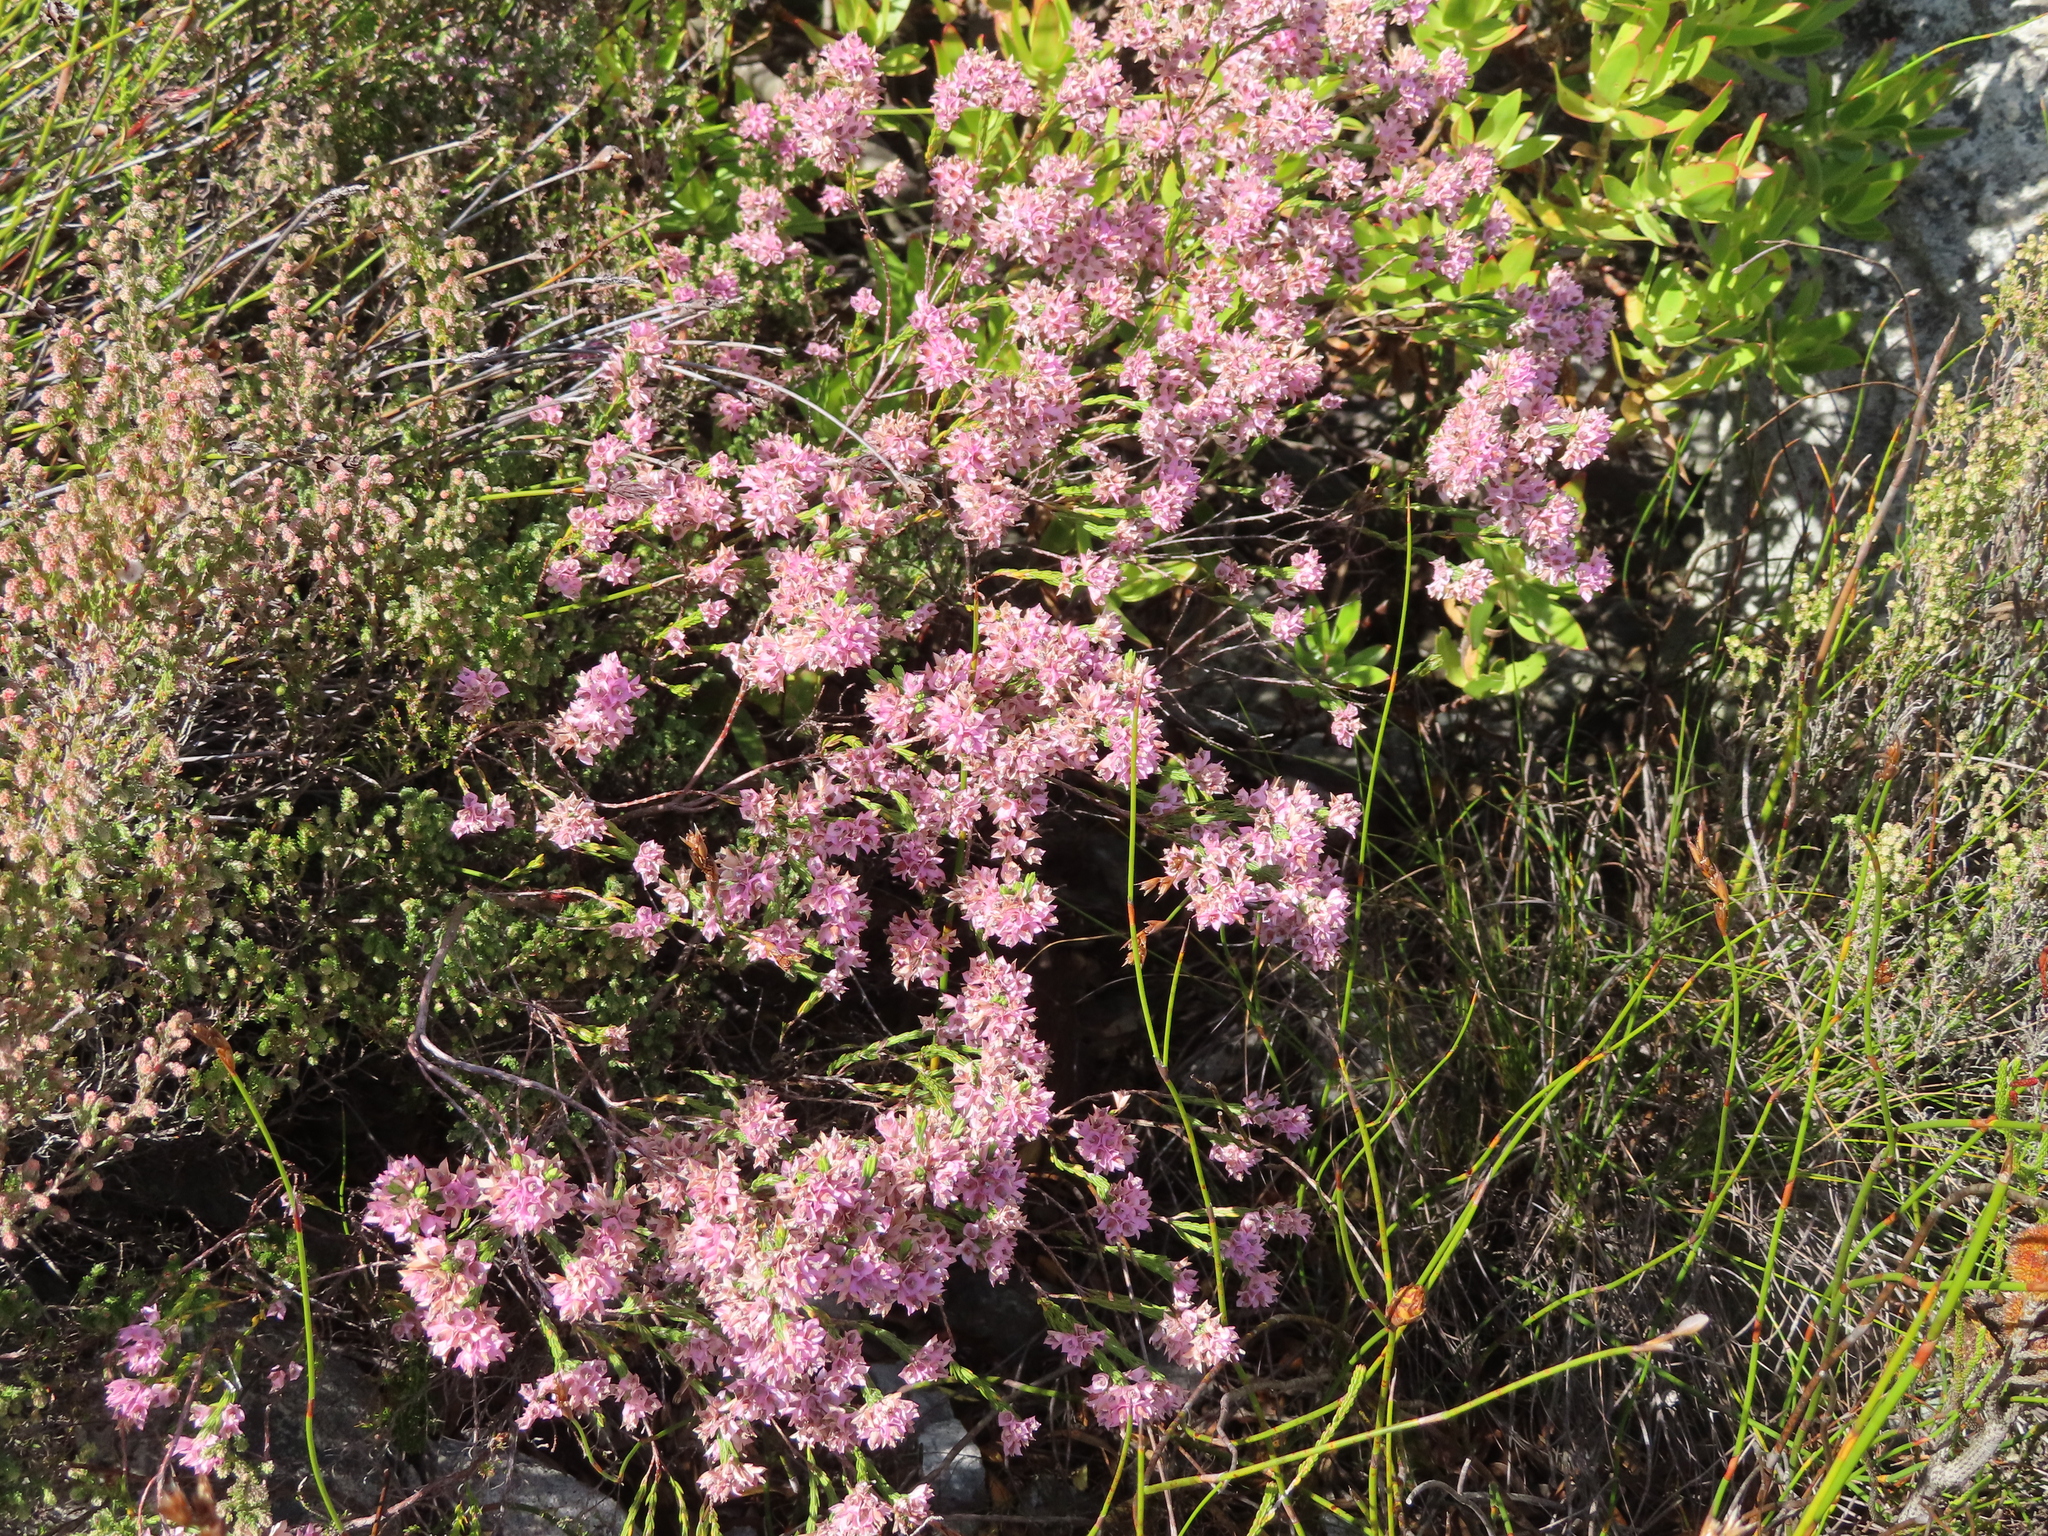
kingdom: Plantae
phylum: Tracheophyta
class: Magnoliopsida
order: Ericales
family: Ericaceae
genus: Erica
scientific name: Erica corifolia
